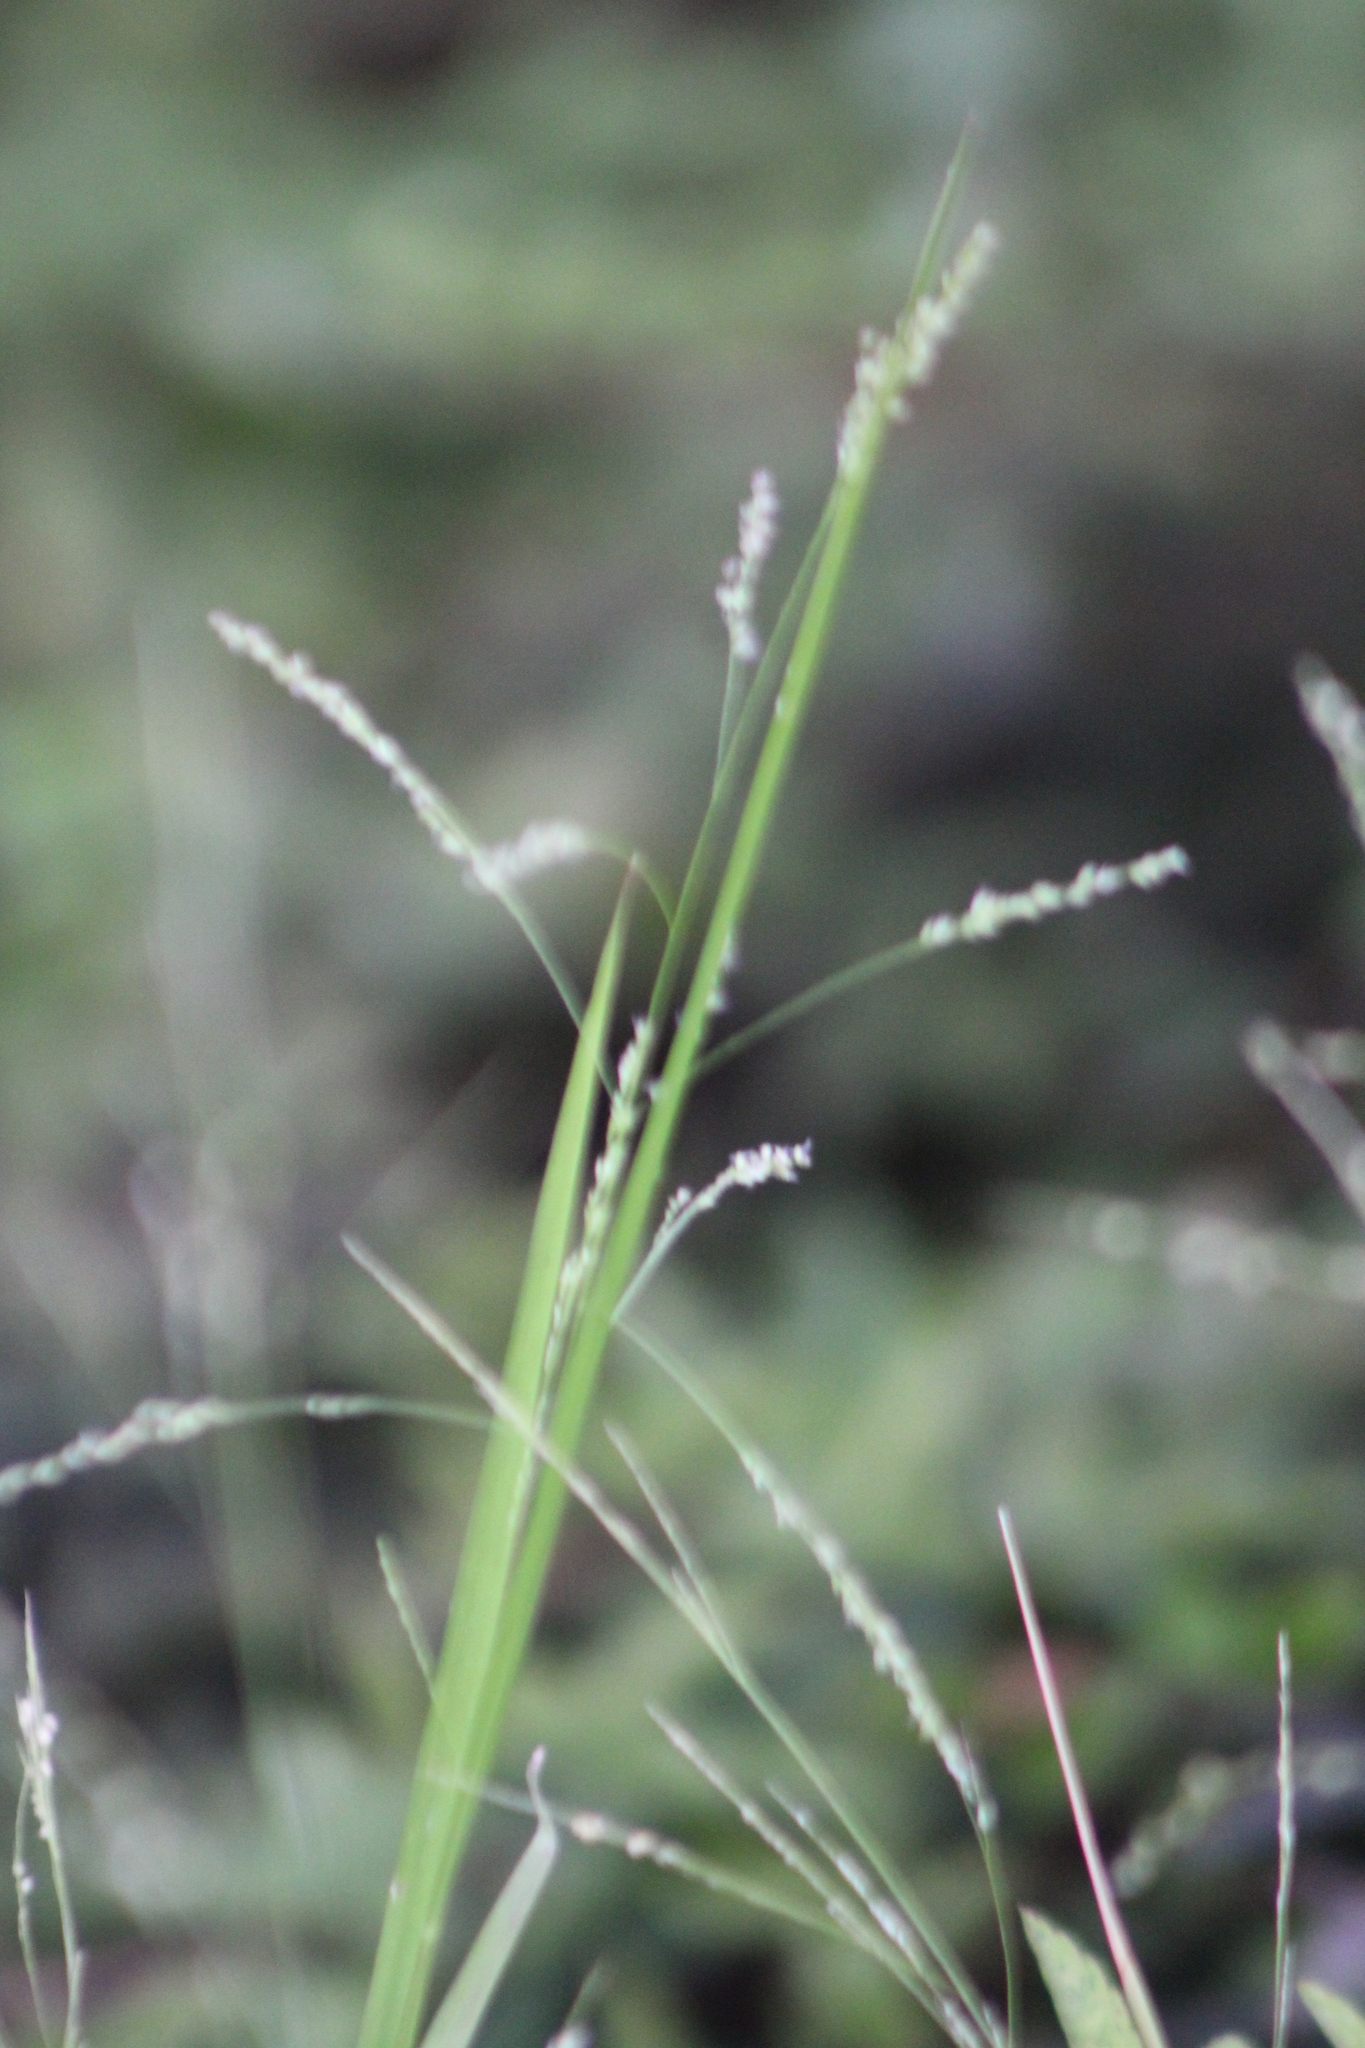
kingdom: Plantae
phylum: Tracheophyta
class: Liliopsida
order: Poales
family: Poaceae
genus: Steinchisma
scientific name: Steinchisma hians
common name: Gaping panic grass
